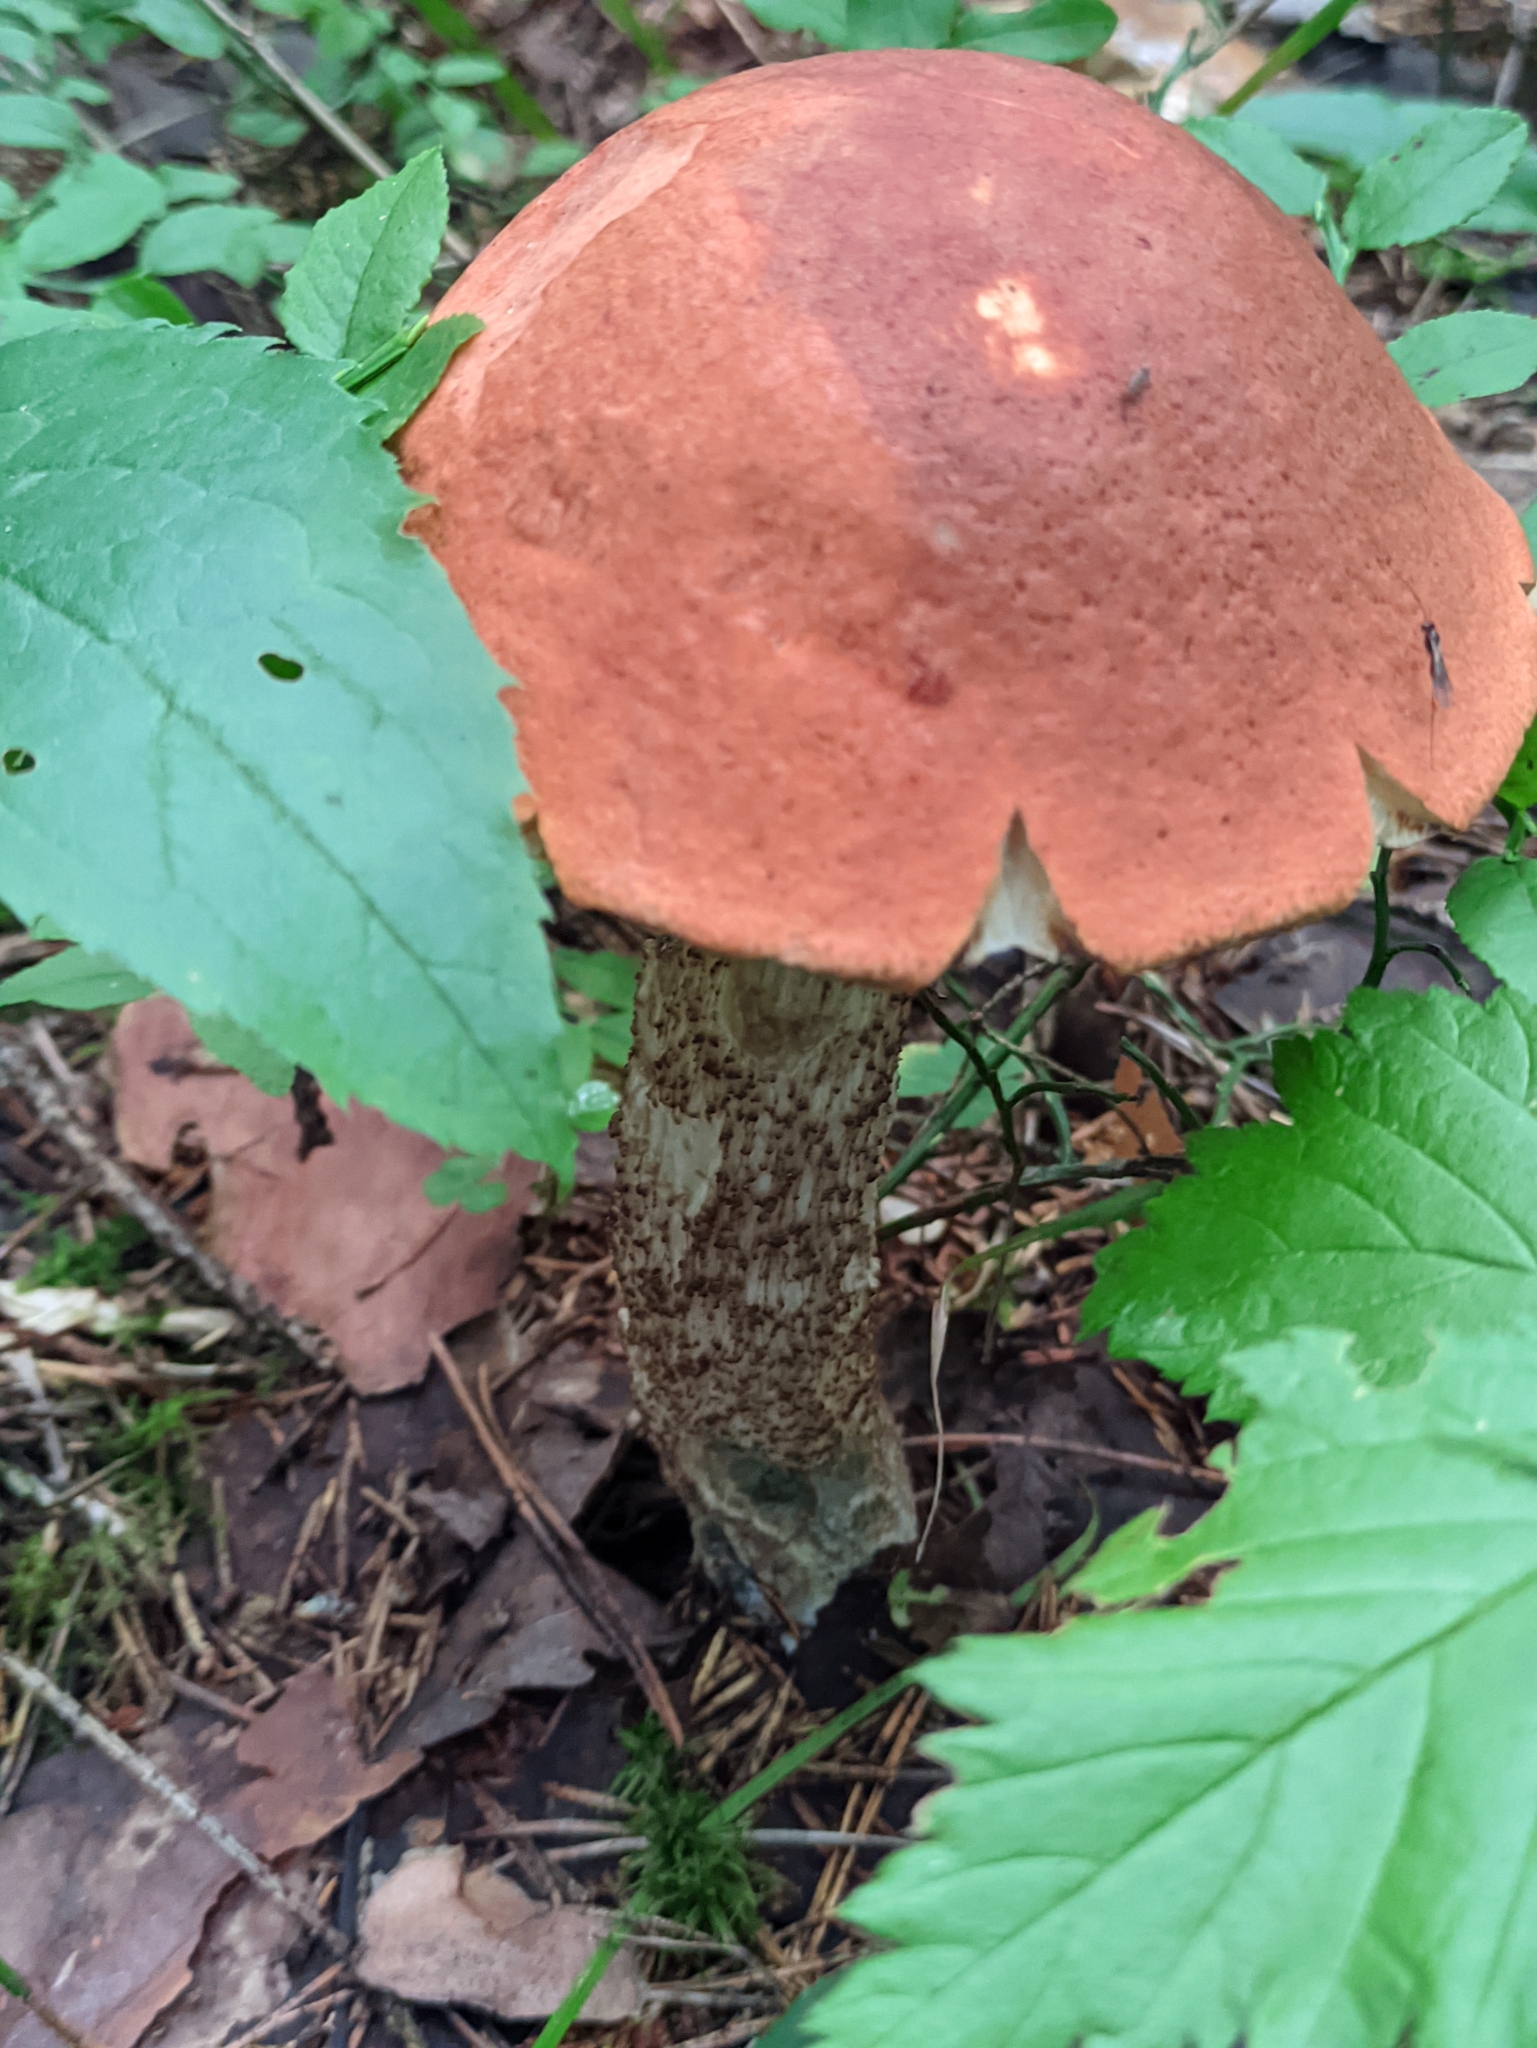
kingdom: Fungi
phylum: Basidiomycota
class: Agaricomycetes
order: Boletales
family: Boletaceae
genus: Leccinum
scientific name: Leccinum aurantiacum
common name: Orange bolete
